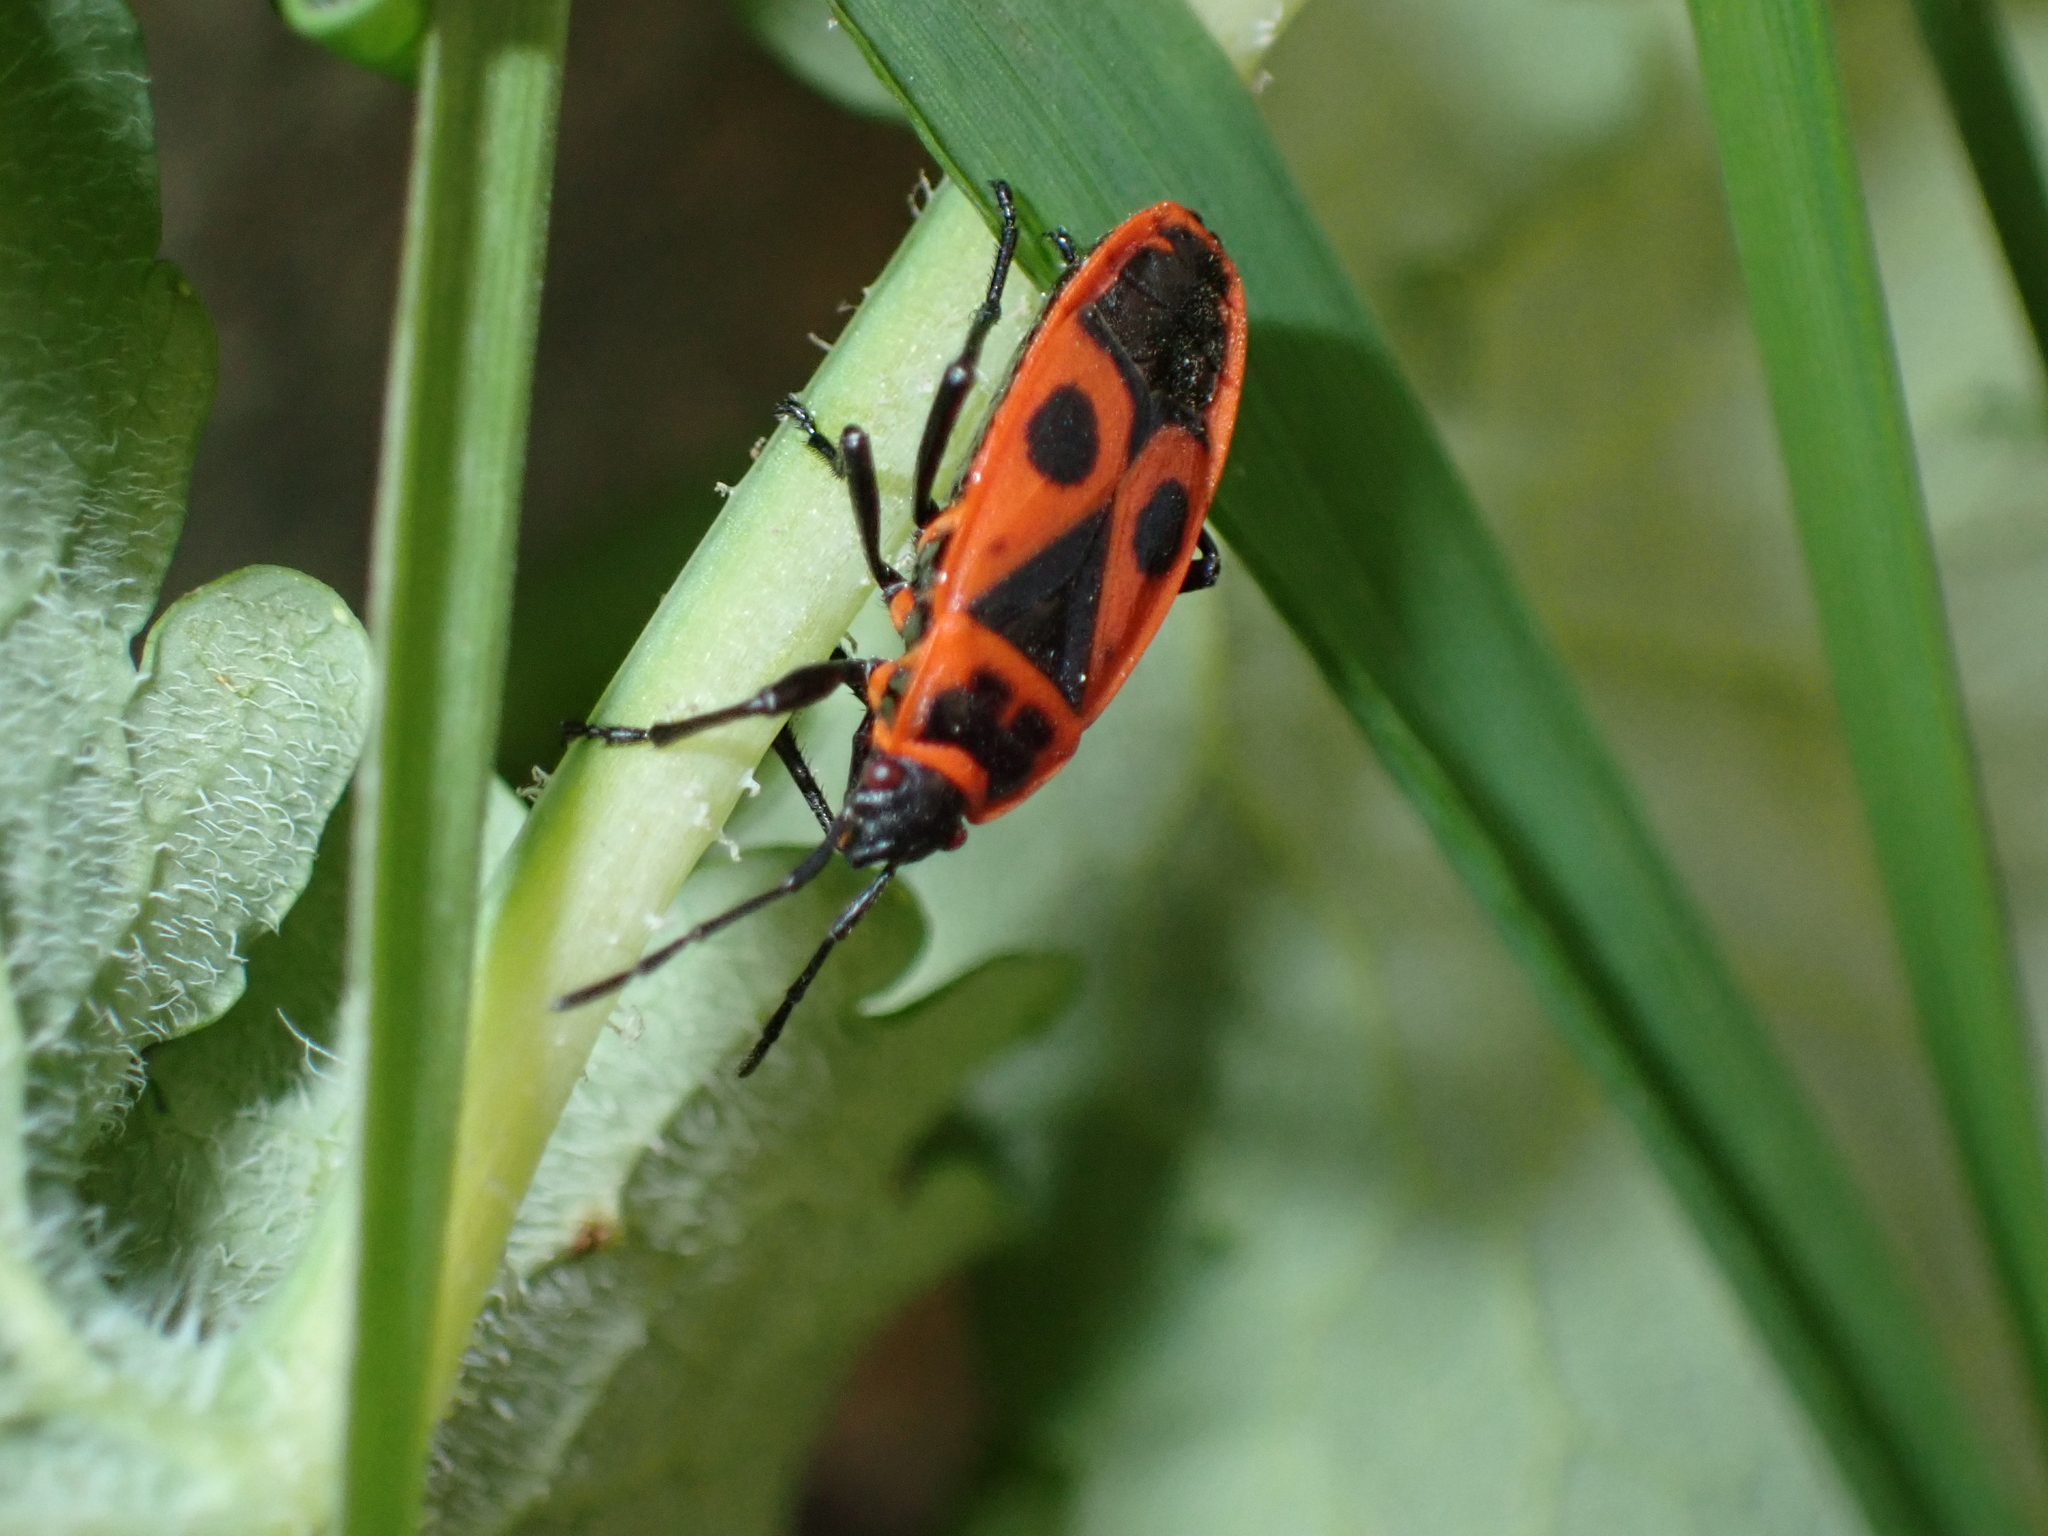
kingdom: Animalia
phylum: Arthropoda
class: Insecta
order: Hemiptera
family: Pyrrhocoridae
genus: Pyrrhocoris
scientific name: Pyrrhocoris apterus
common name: Firebug
